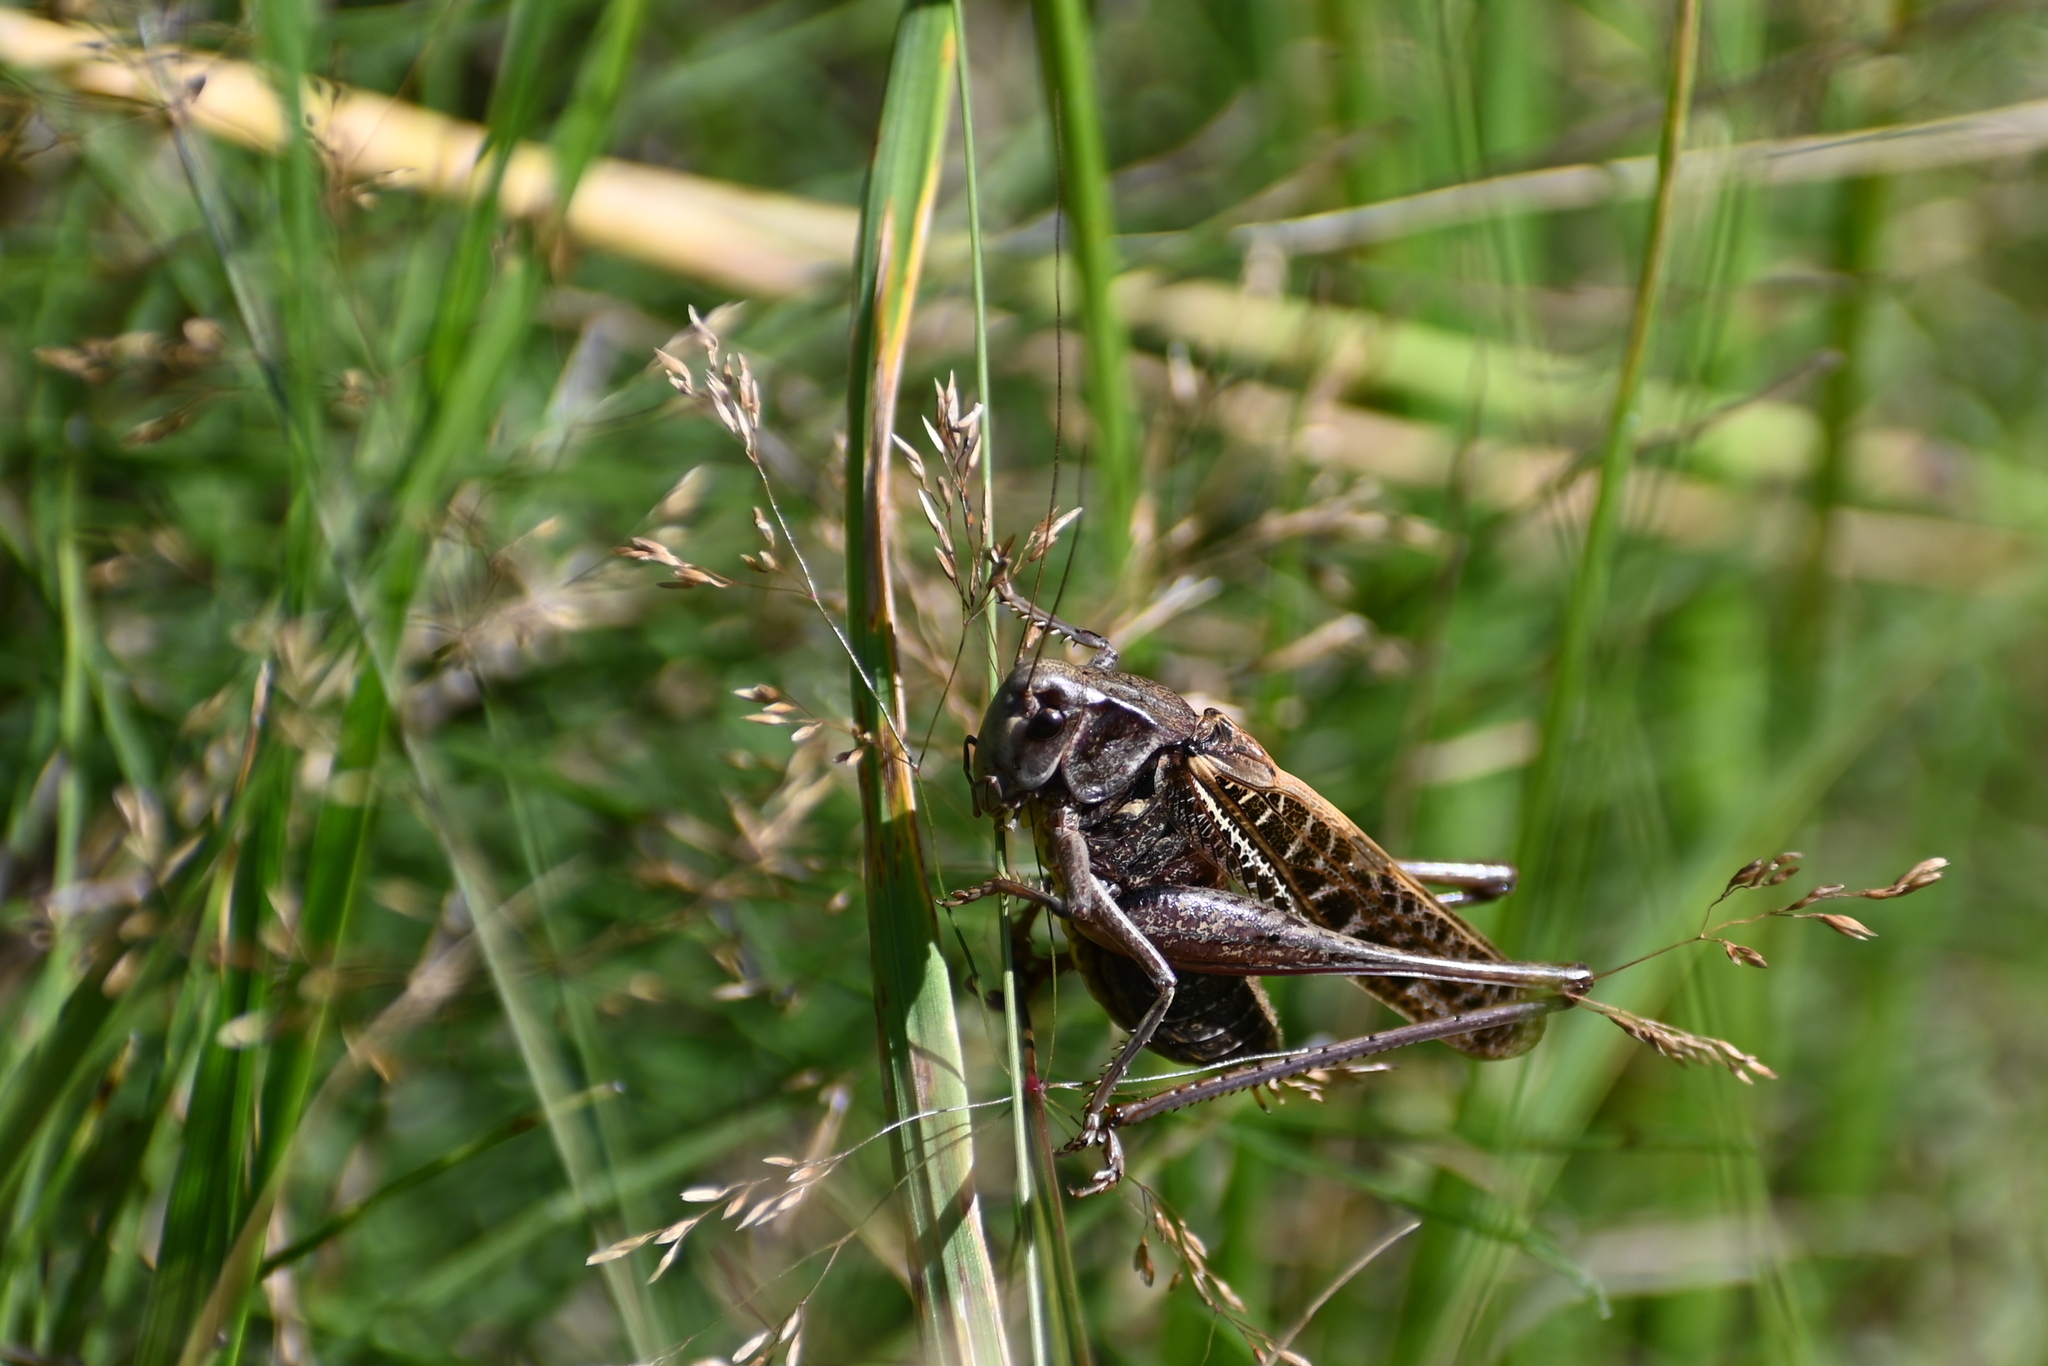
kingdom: Animalia
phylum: Arthropoda
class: Insecta
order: Orthoptera
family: Tettigoniidae
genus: Decticus
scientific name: Decticus verrucivorus
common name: Wart-biter
